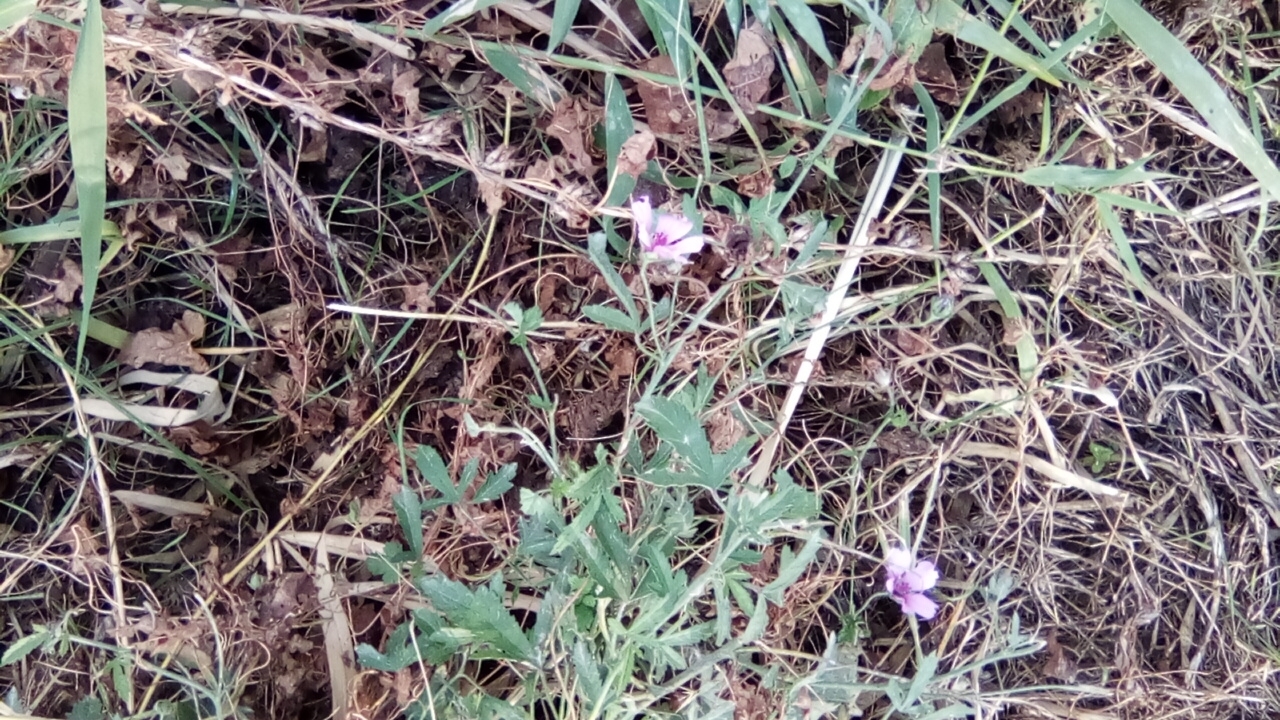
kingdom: Plantae
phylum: Tracheophyta
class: Magnoliopsida
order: Malvales
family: Malvaceae
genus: Althaea
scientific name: Althaea cannabina
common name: Palm-leaf marshmallow
